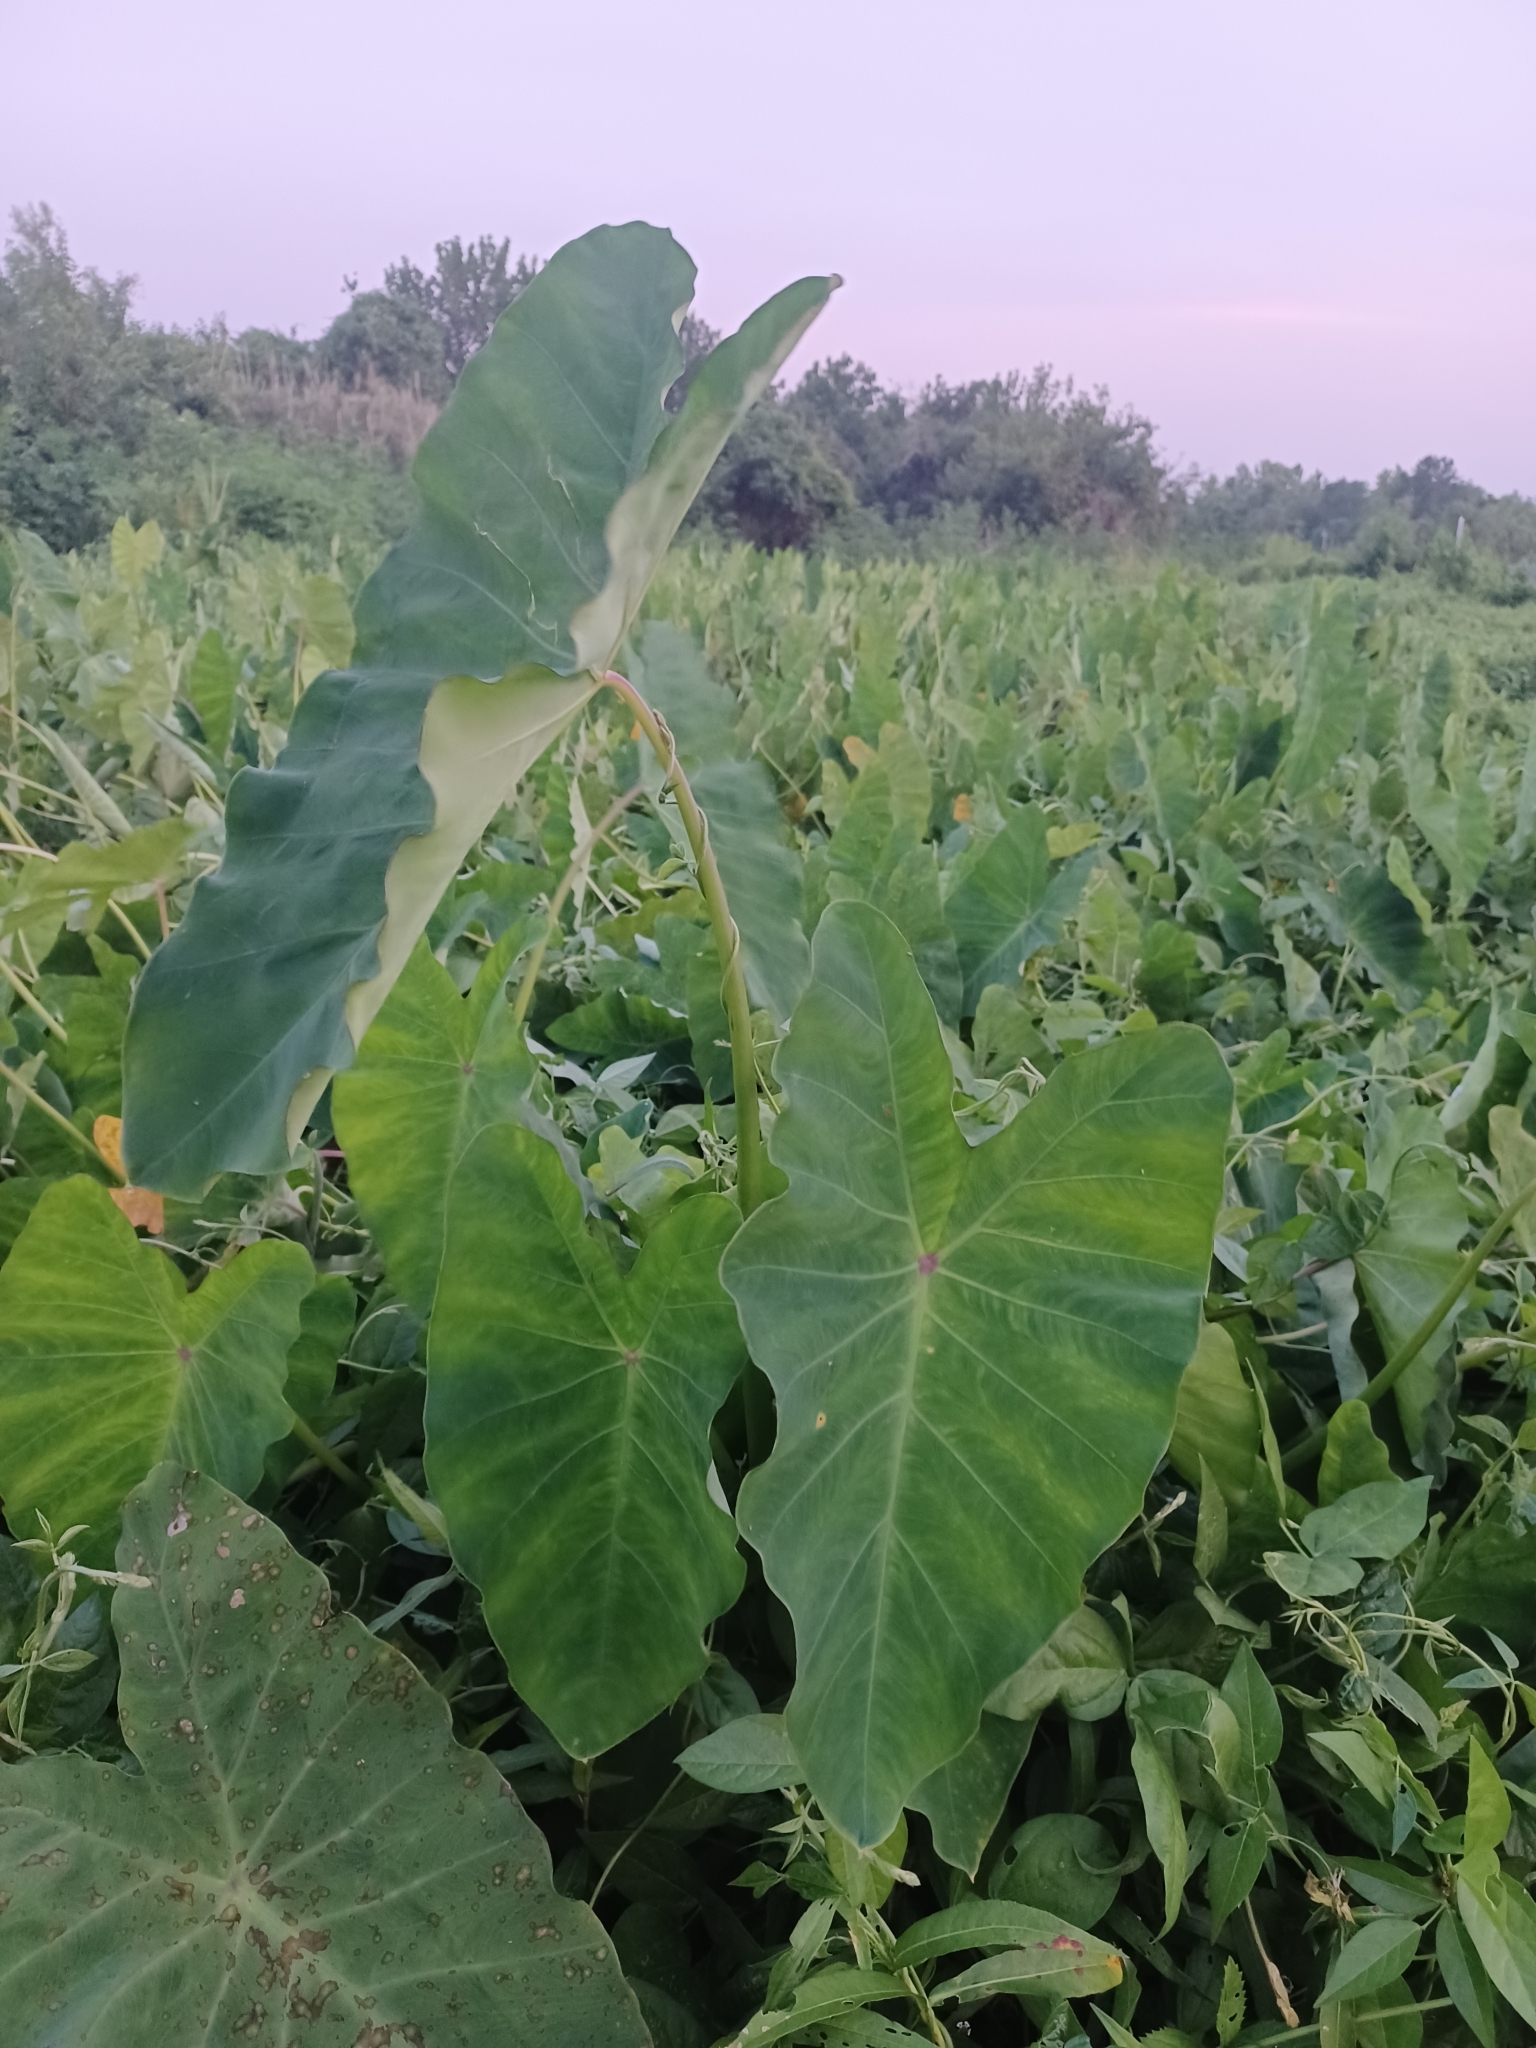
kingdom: Plantae
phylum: Tracheophyta
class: Liliopsida
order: Alismatales
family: Araceae
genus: Colocasia
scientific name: Colocasia esculenta
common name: Taro
